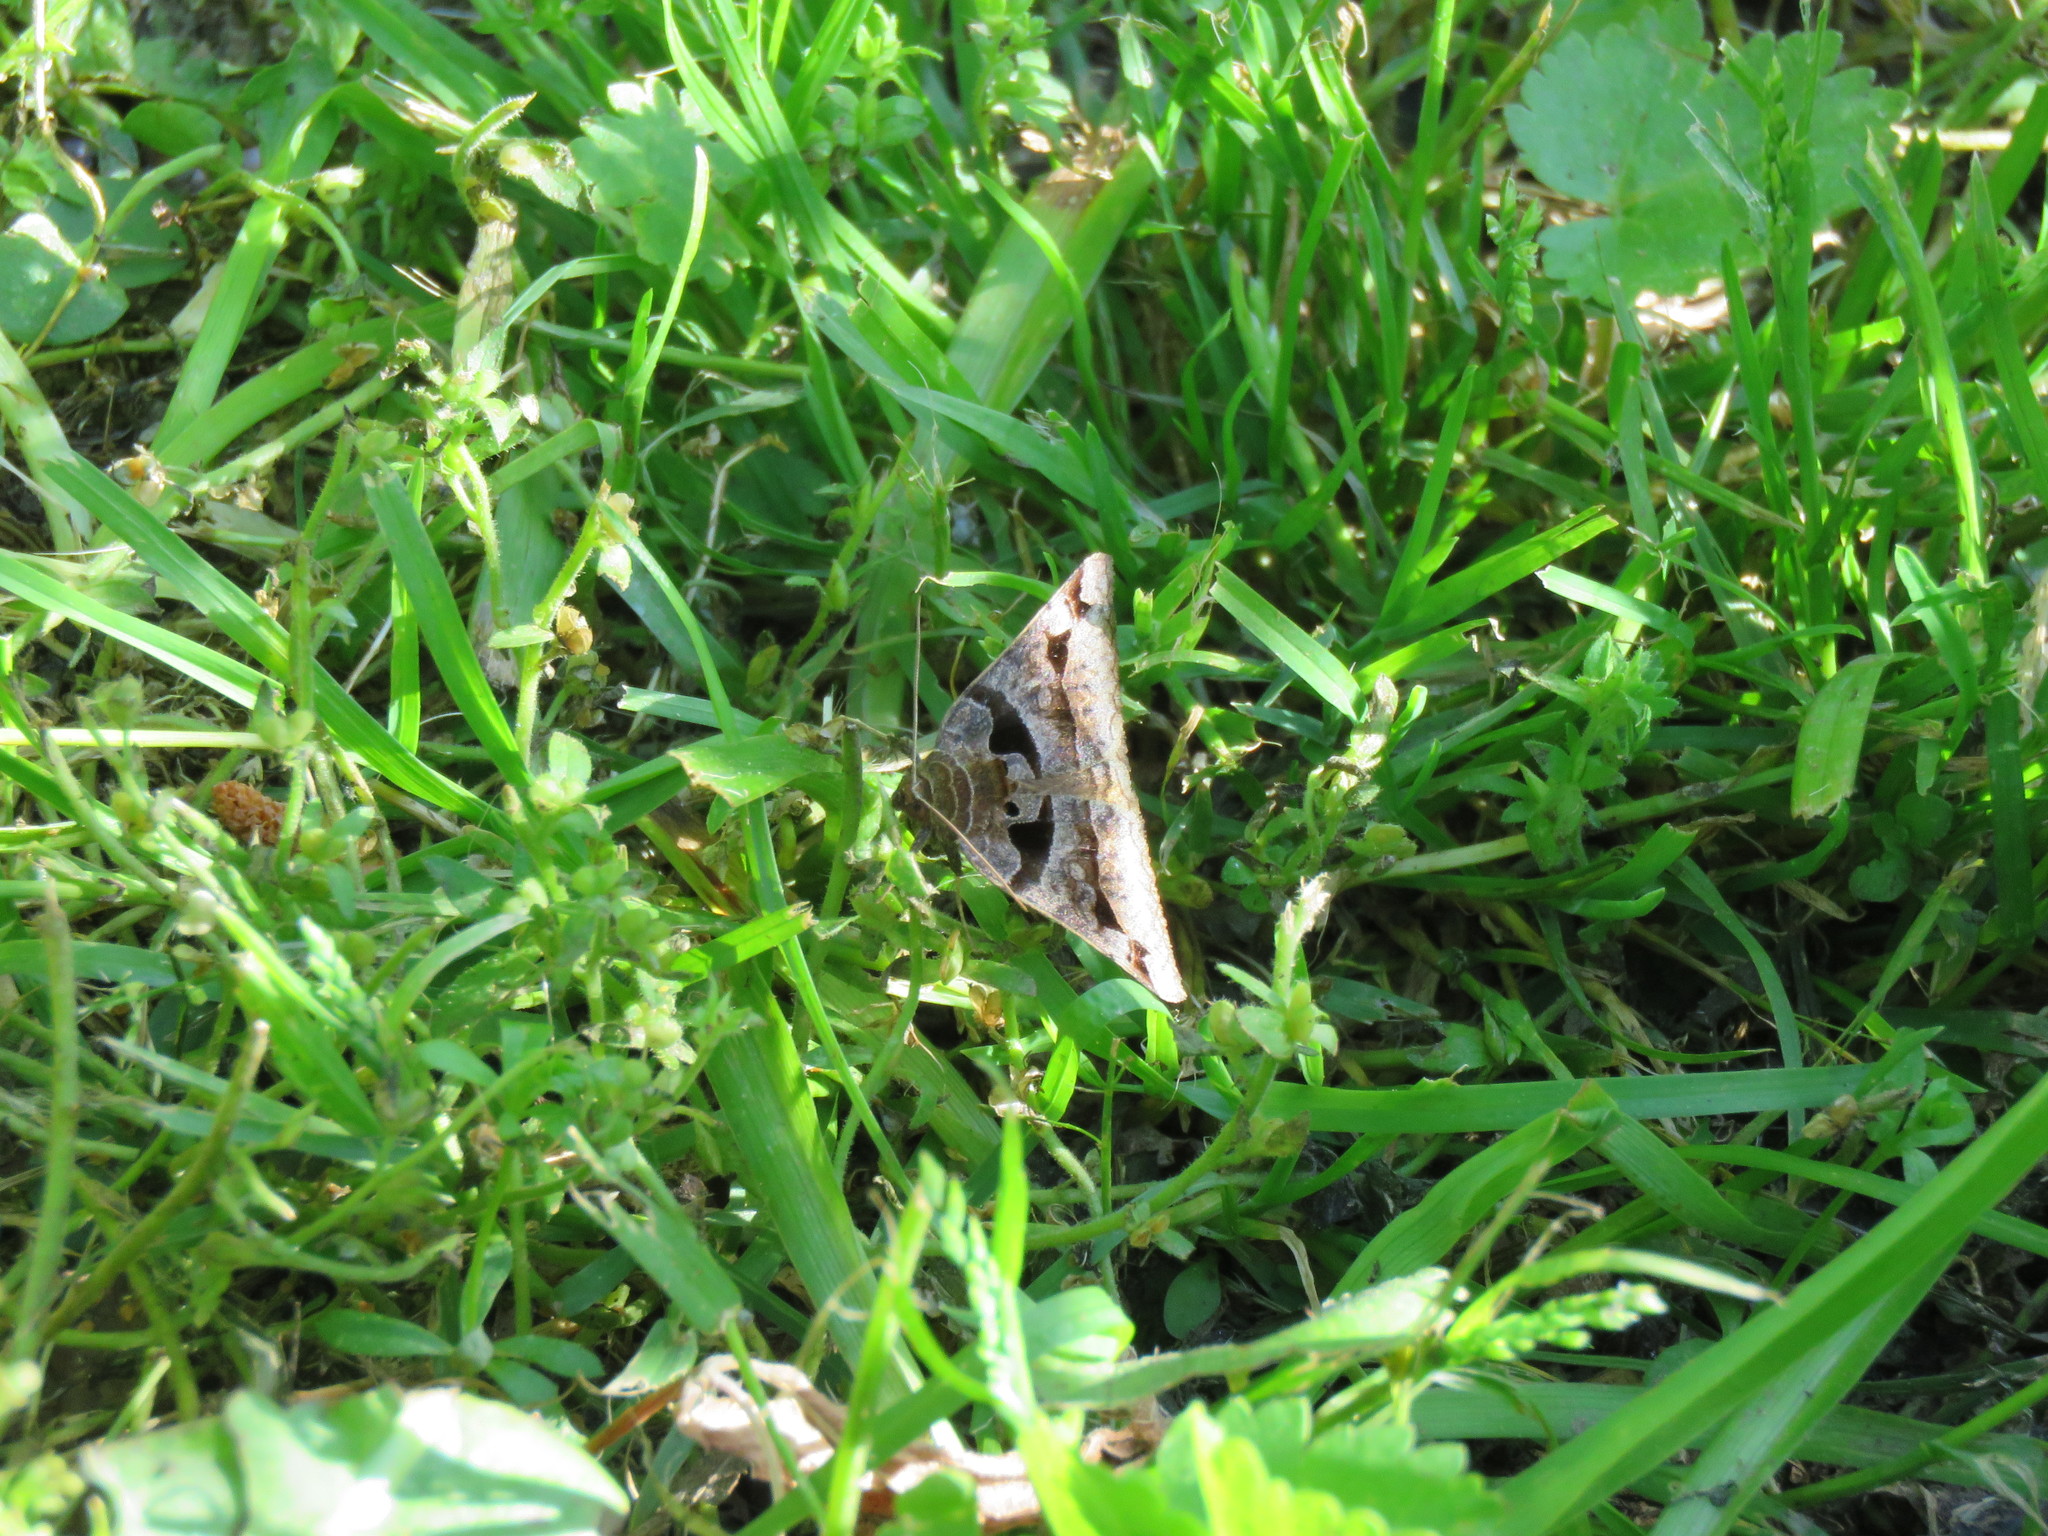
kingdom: Animalia
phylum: Arthropoda
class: Insecta
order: Lepidoptera
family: Erebidae
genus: Euclidia
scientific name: Euclidia cuspidea
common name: Toothed somberwing
